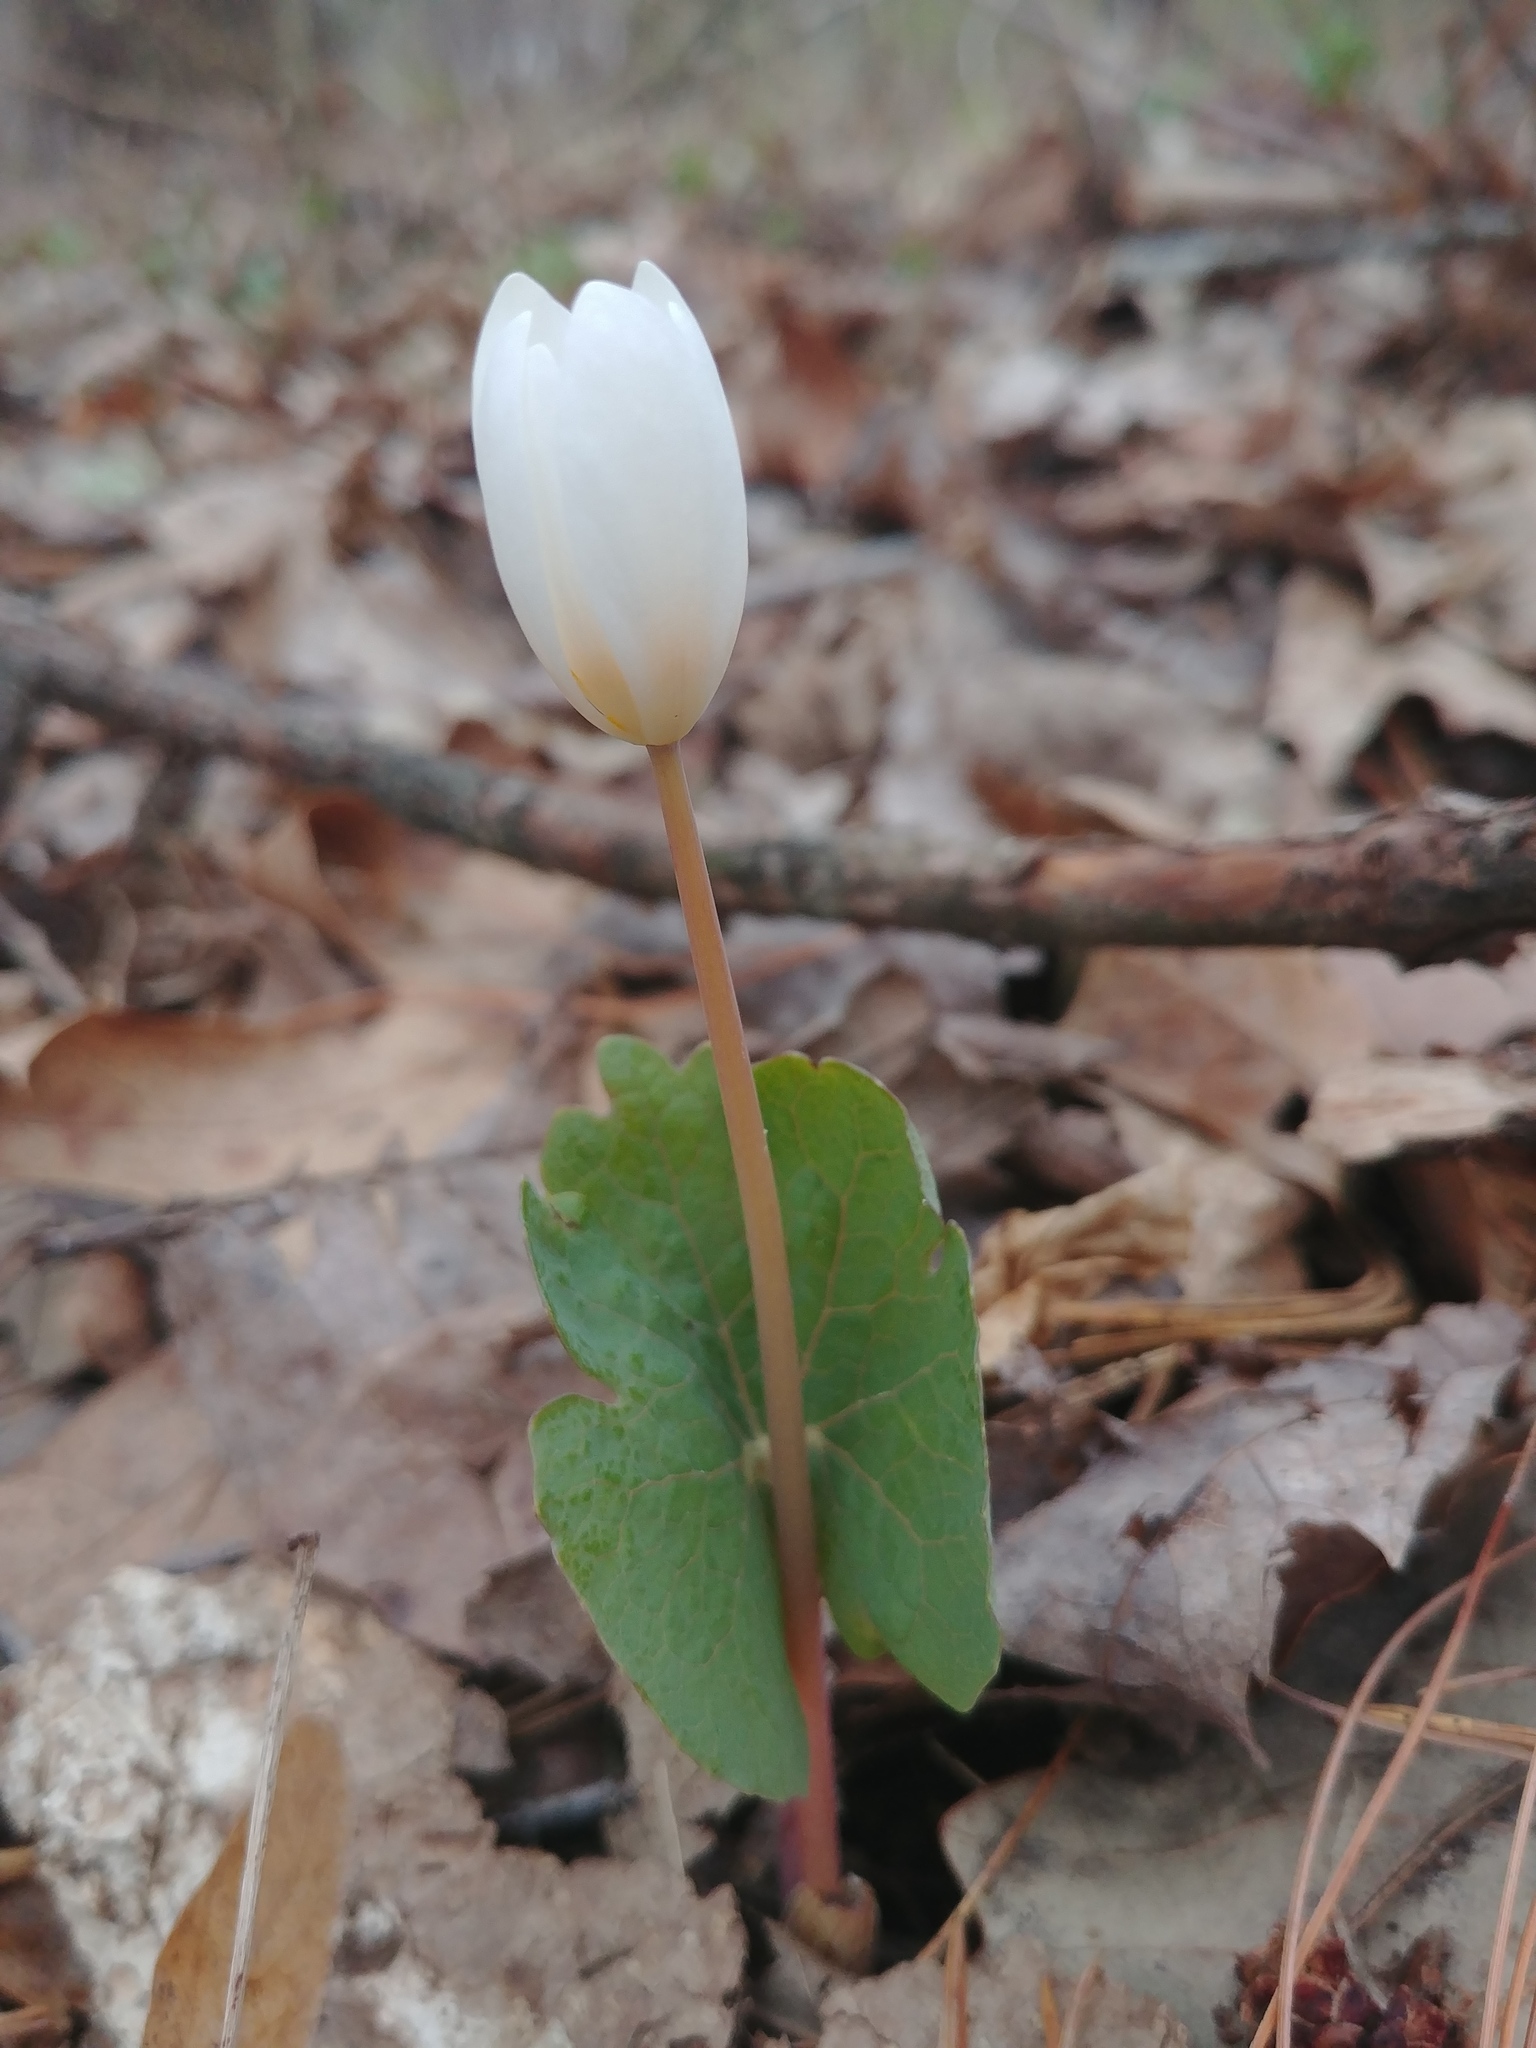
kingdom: Plantae
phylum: Tracheophyta
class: Magnoliopsida
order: Ranunculales
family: Papaveraceae
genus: Sanguinaria
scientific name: Sanguinaria canadensis
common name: Bloodroot
